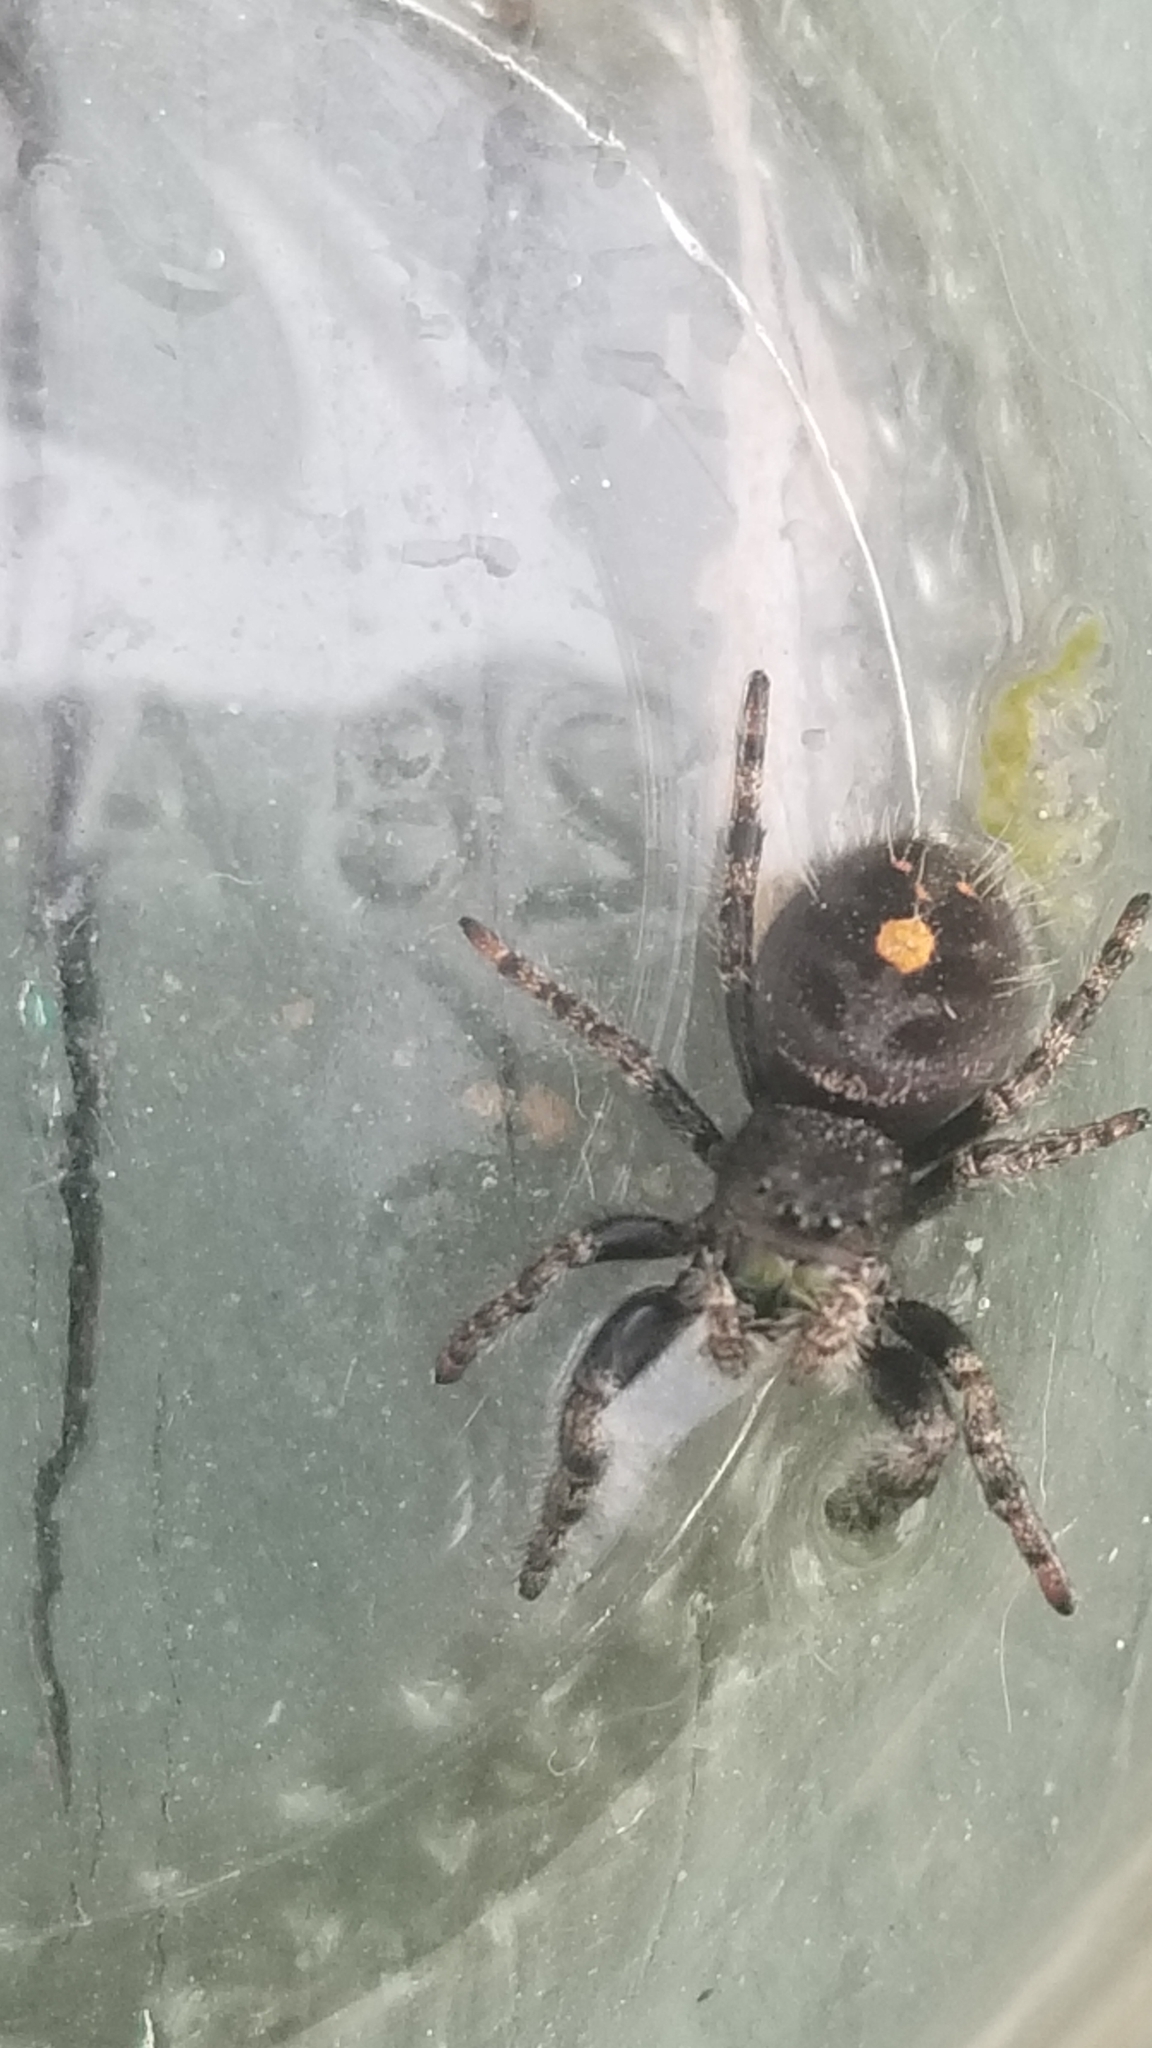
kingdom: Animalia
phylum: Arthropoda
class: Arachnida
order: Araneae
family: Salticidae
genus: Phidippus
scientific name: Phidippus audax
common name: Bold jumper
